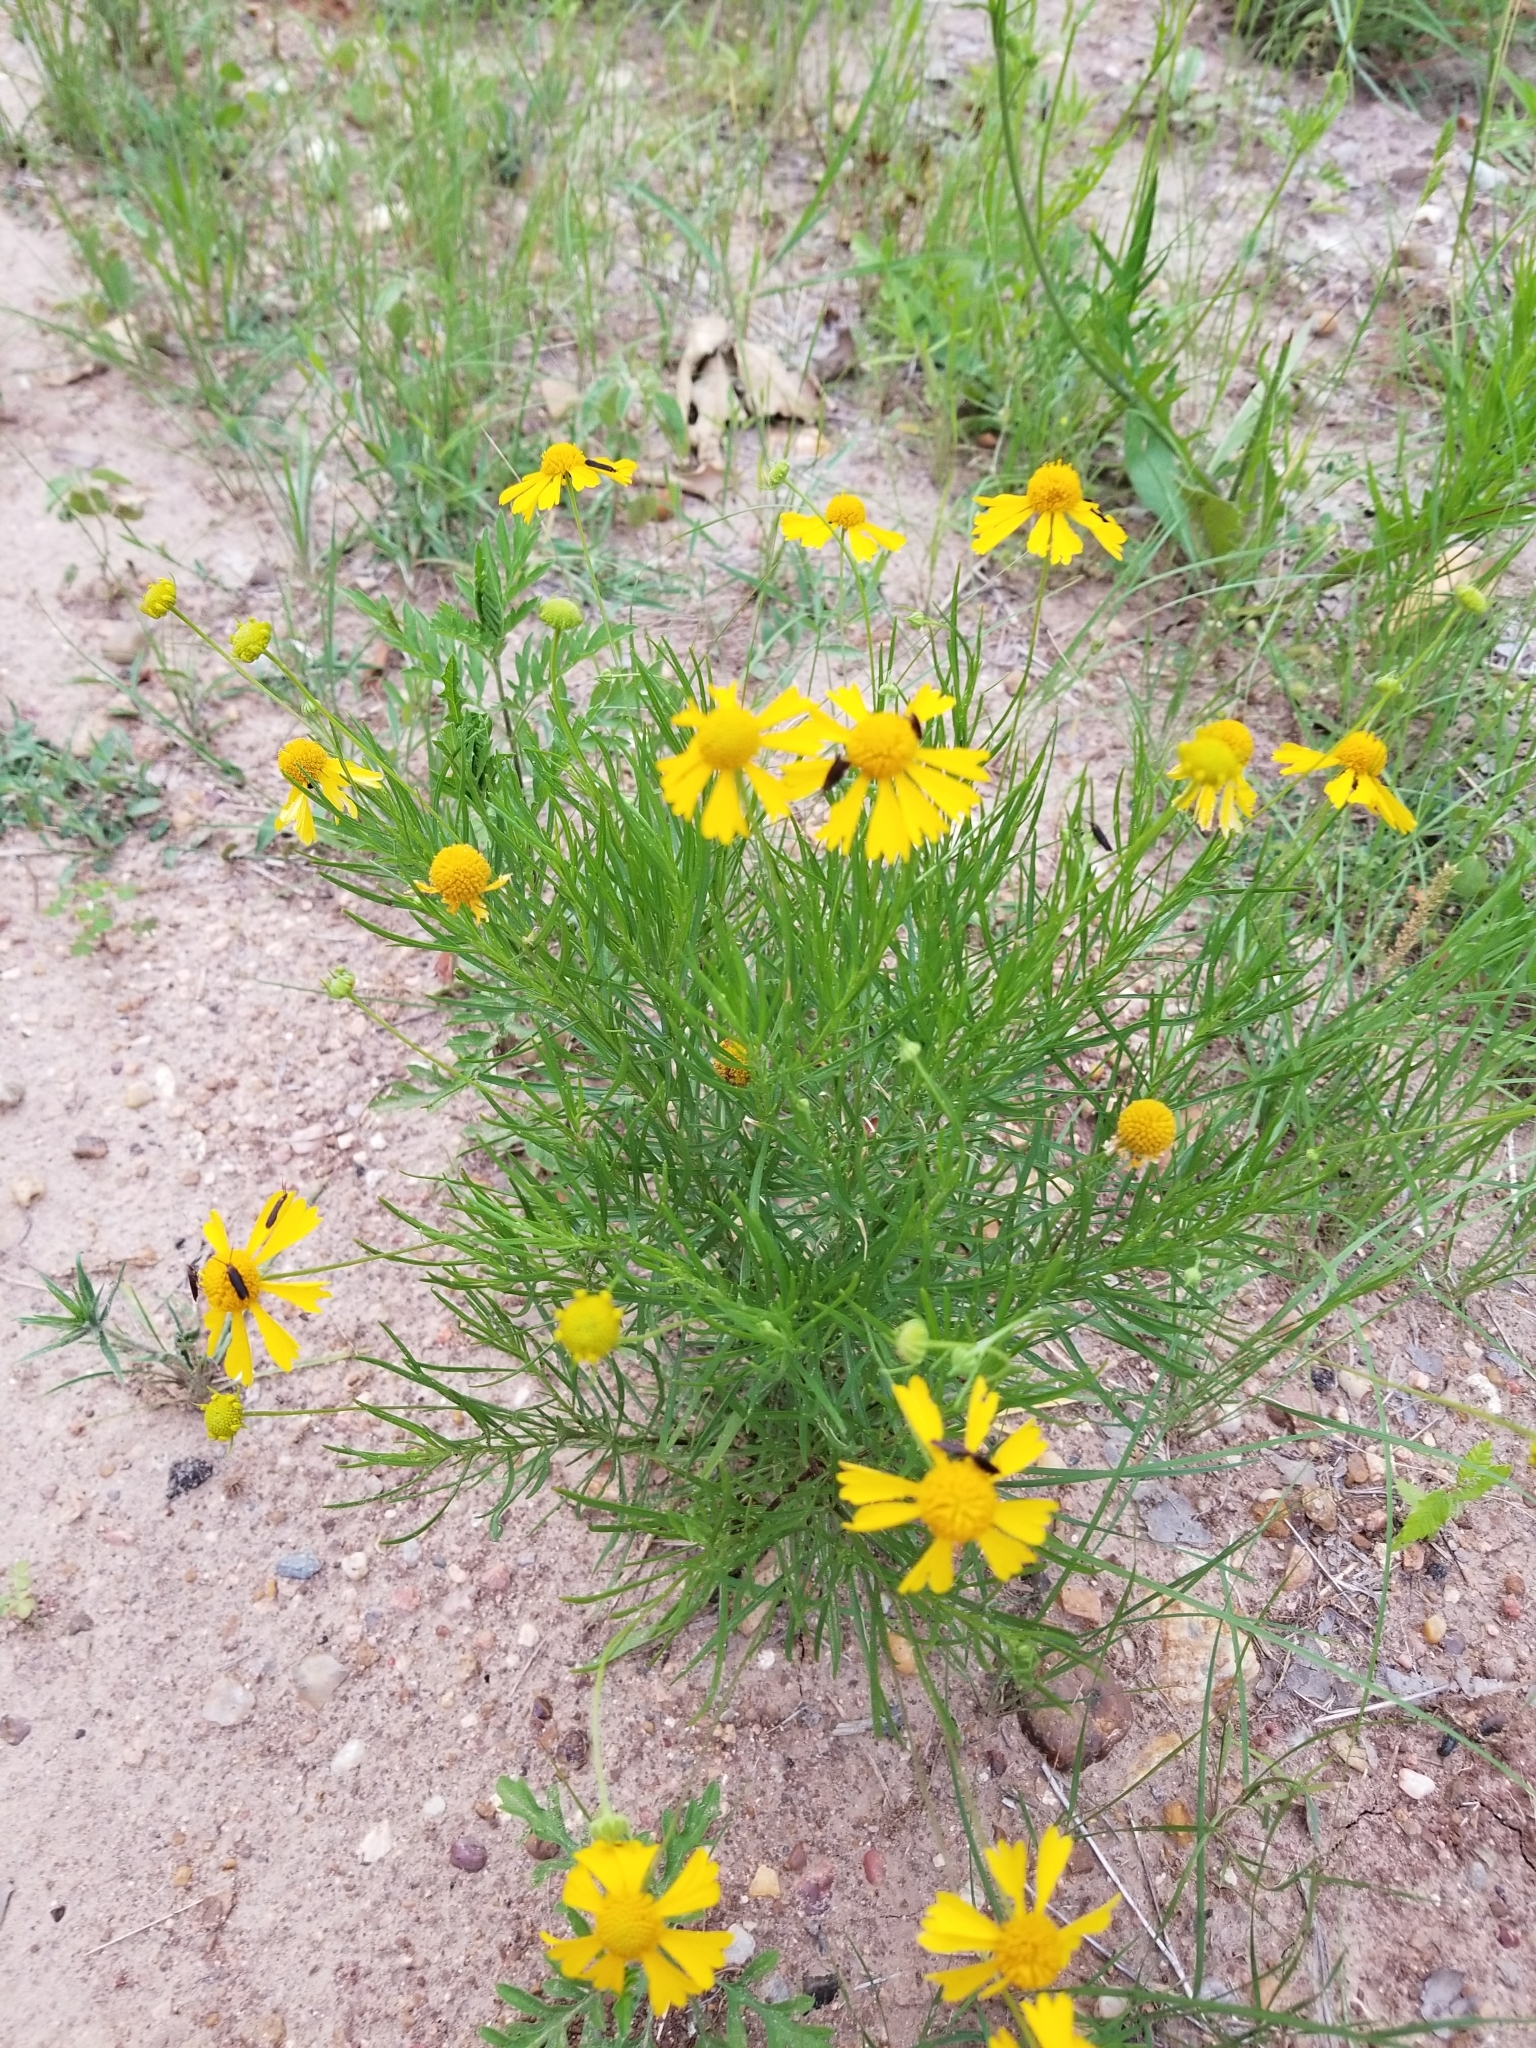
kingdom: Plantae
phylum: Tracheophyta
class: Magnoliopsida
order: Asterales
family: Asteraceae
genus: Helenium
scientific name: Helenium amarum
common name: Bitter sneezeweed
